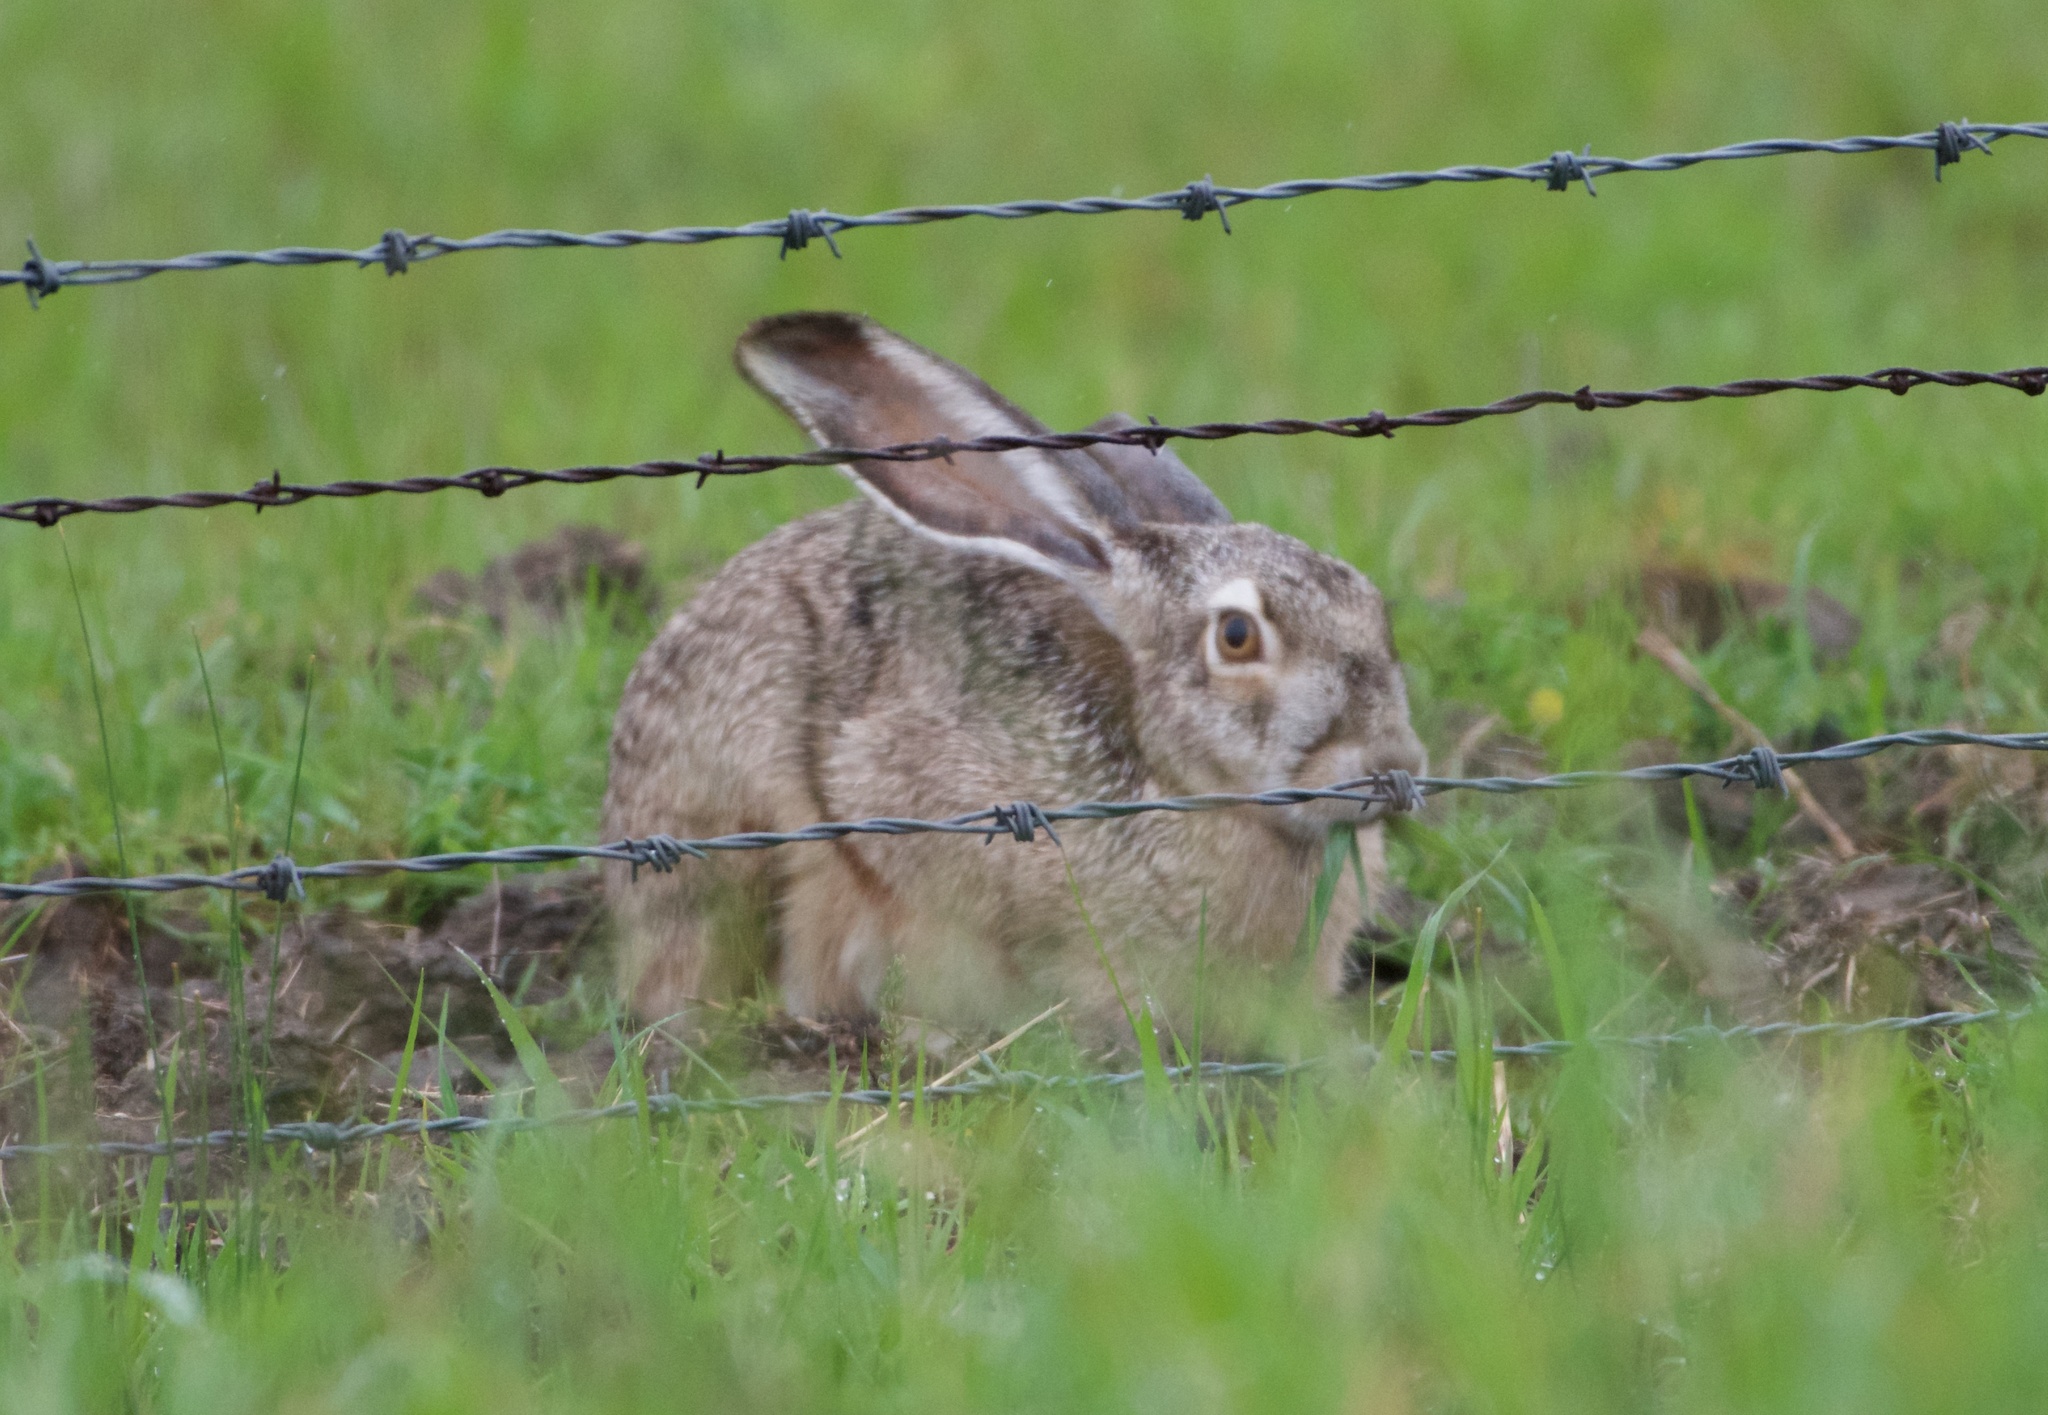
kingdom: Animalia
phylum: Chordata
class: Mammalia
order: Lagomorpha
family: Leporidae
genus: Lepus
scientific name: Lepus californicus
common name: Black-tailed jackrabbit
